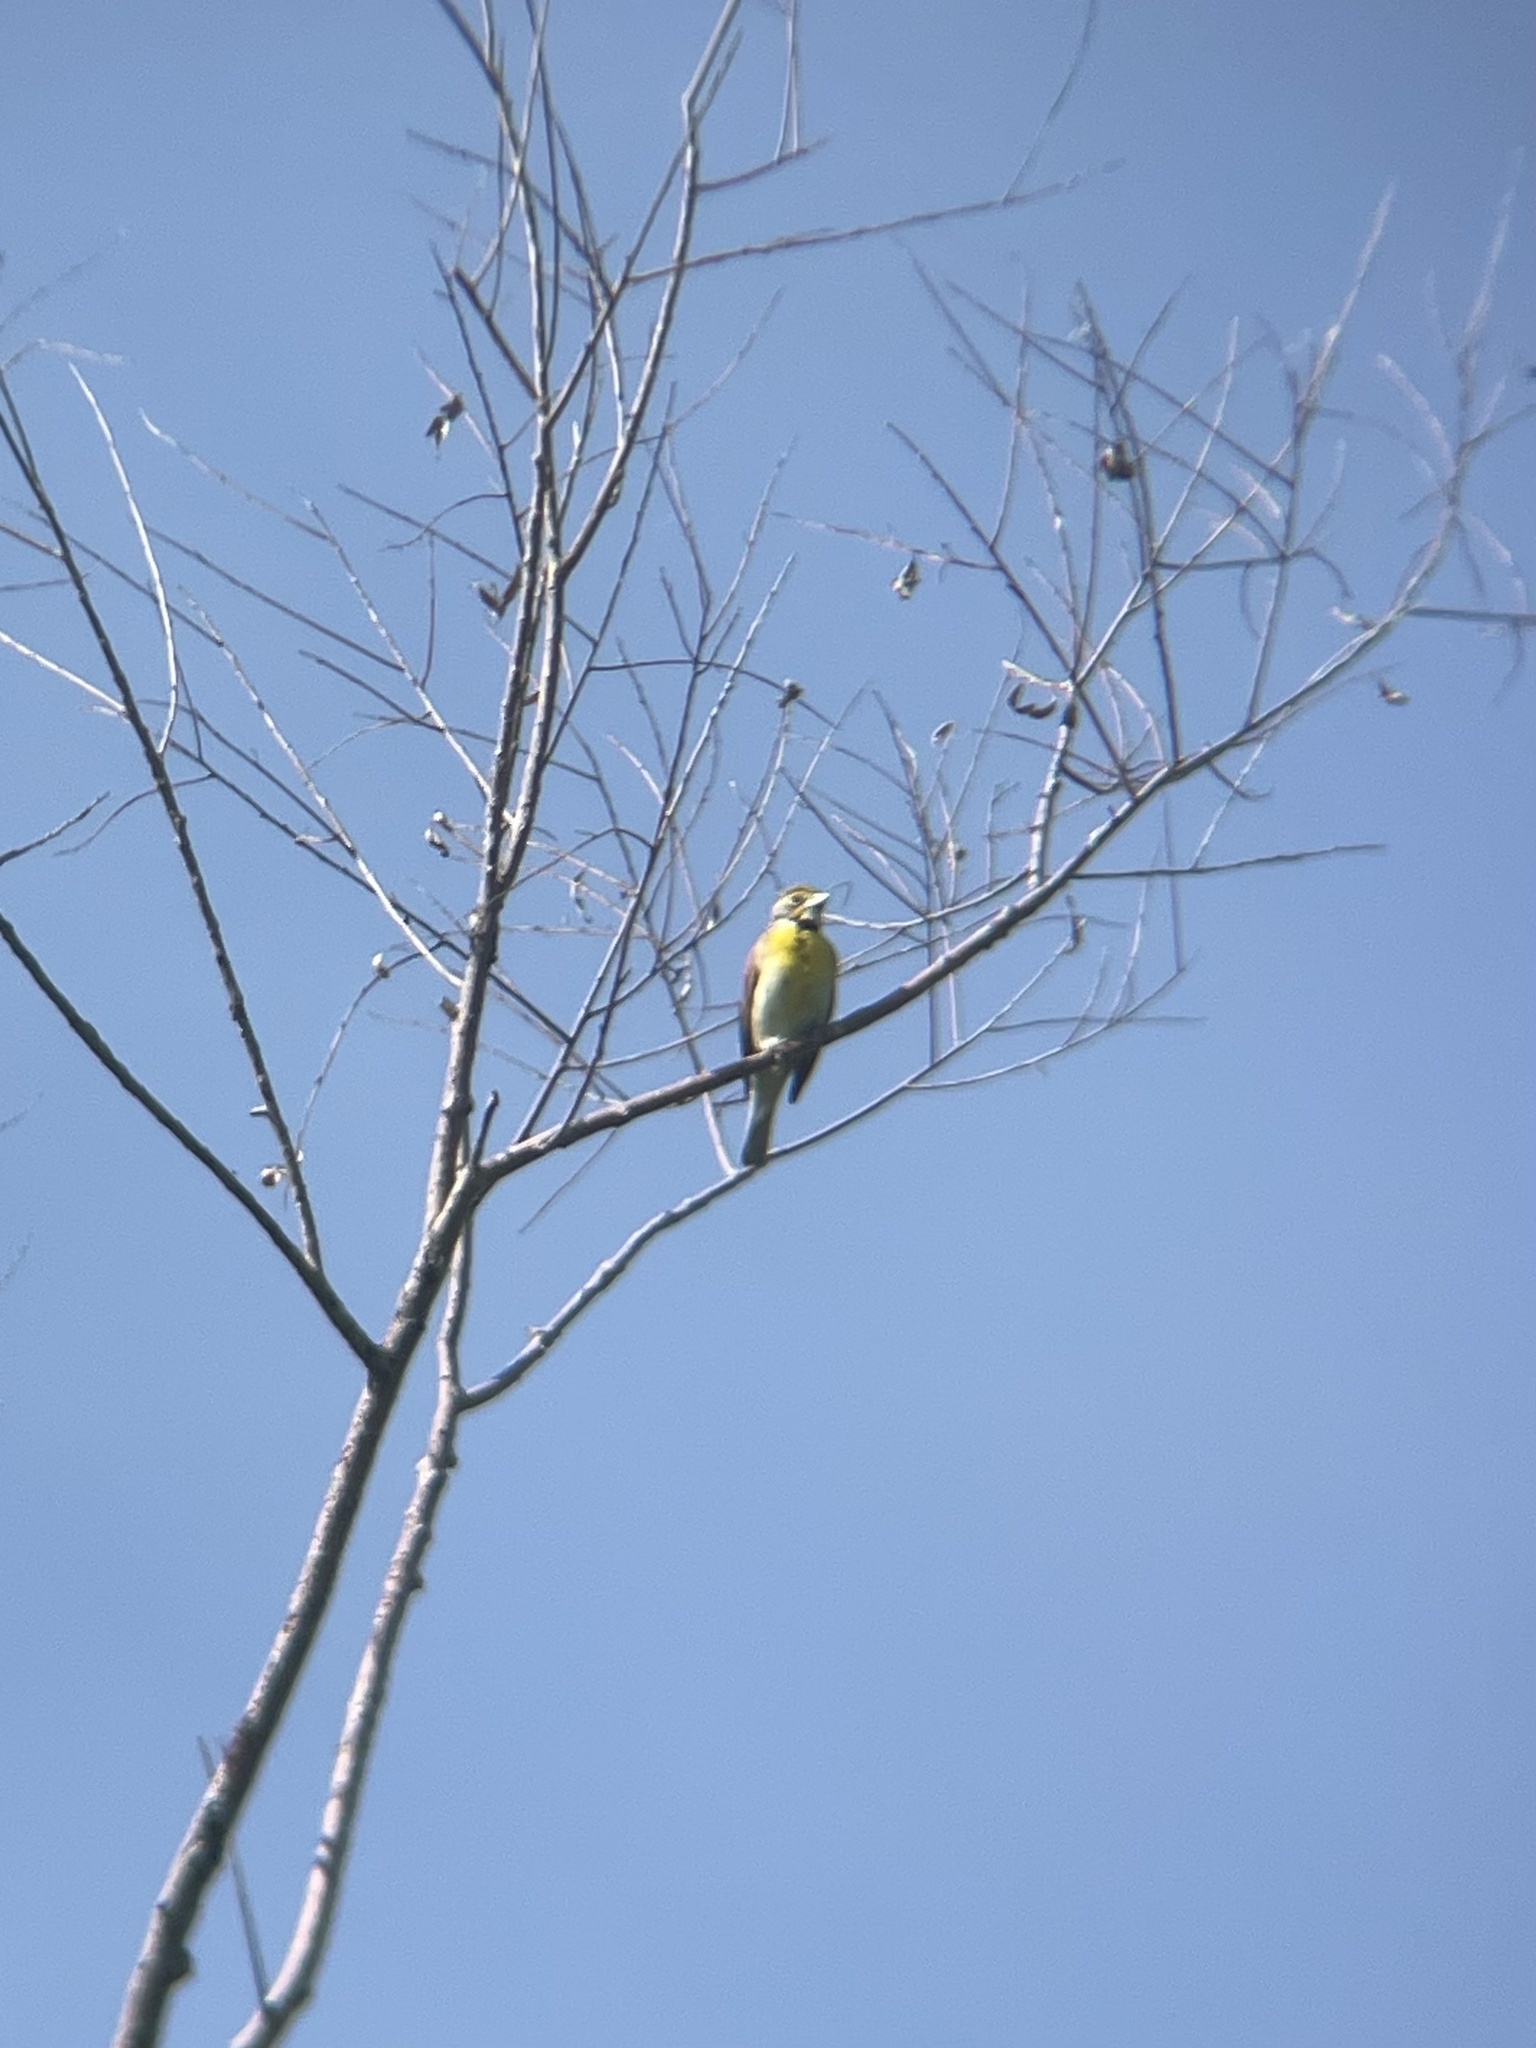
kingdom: Animalia
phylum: Chordata
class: Aves
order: Passeriformes
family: Cardinalidae
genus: Spiza
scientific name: Spiza americana
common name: Dickcissel
